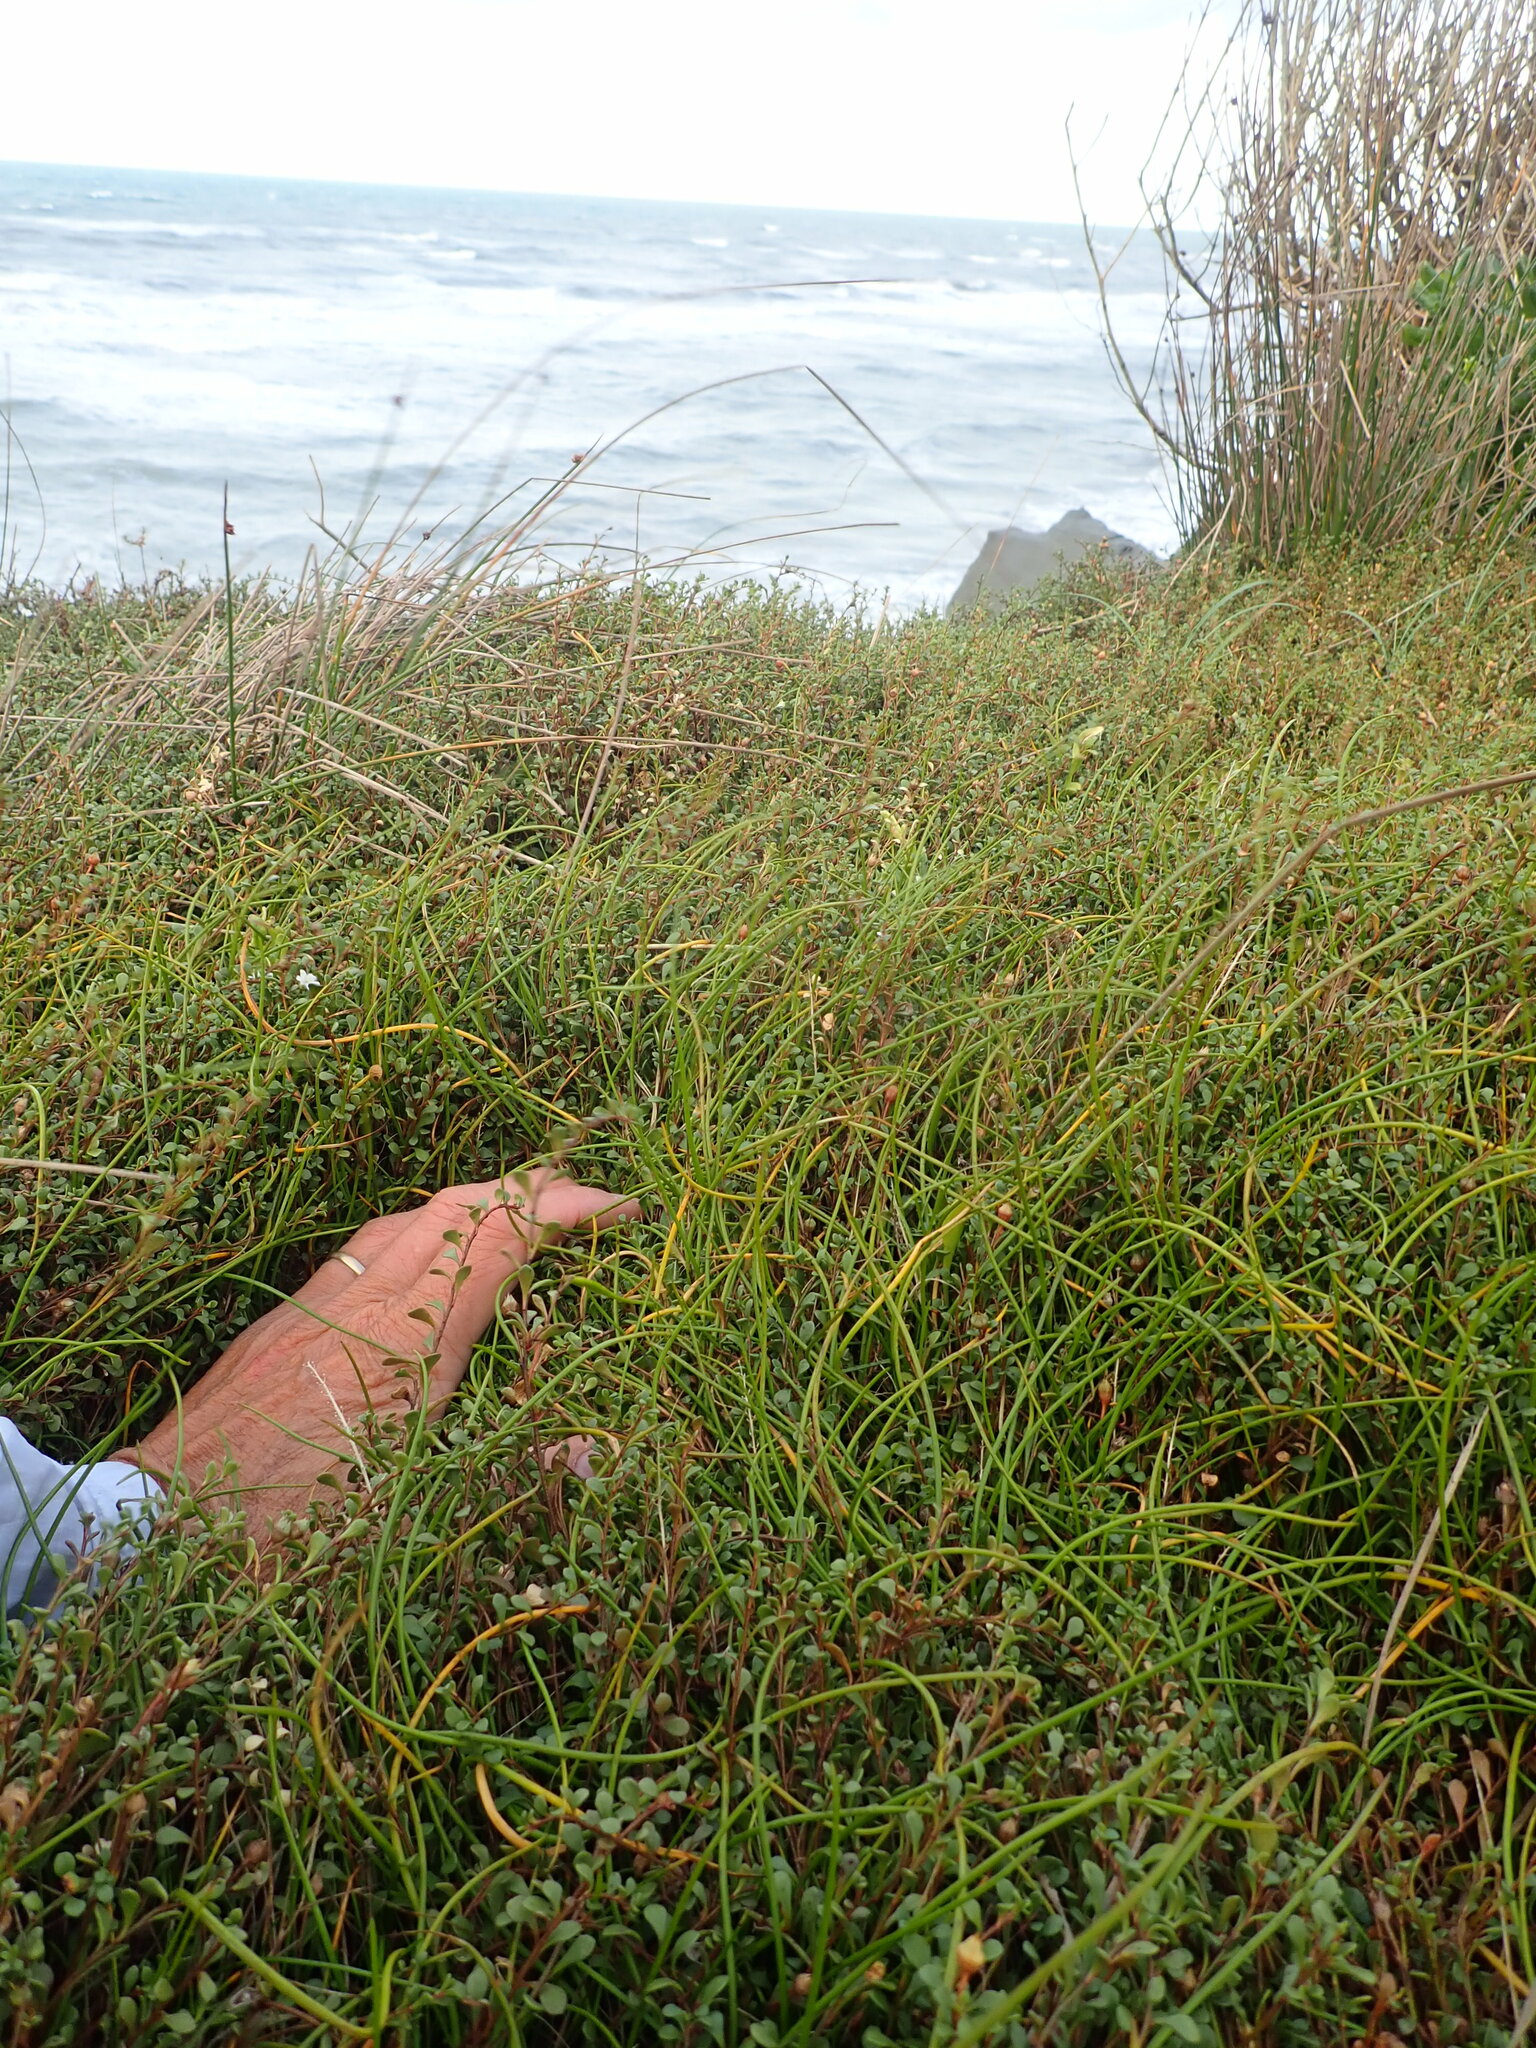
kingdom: Plantae
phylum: Tracheophyta
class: Liliopsida
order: Alismatales
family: Juncaginaceae
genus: Triglochin
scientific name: Triglochin striata
